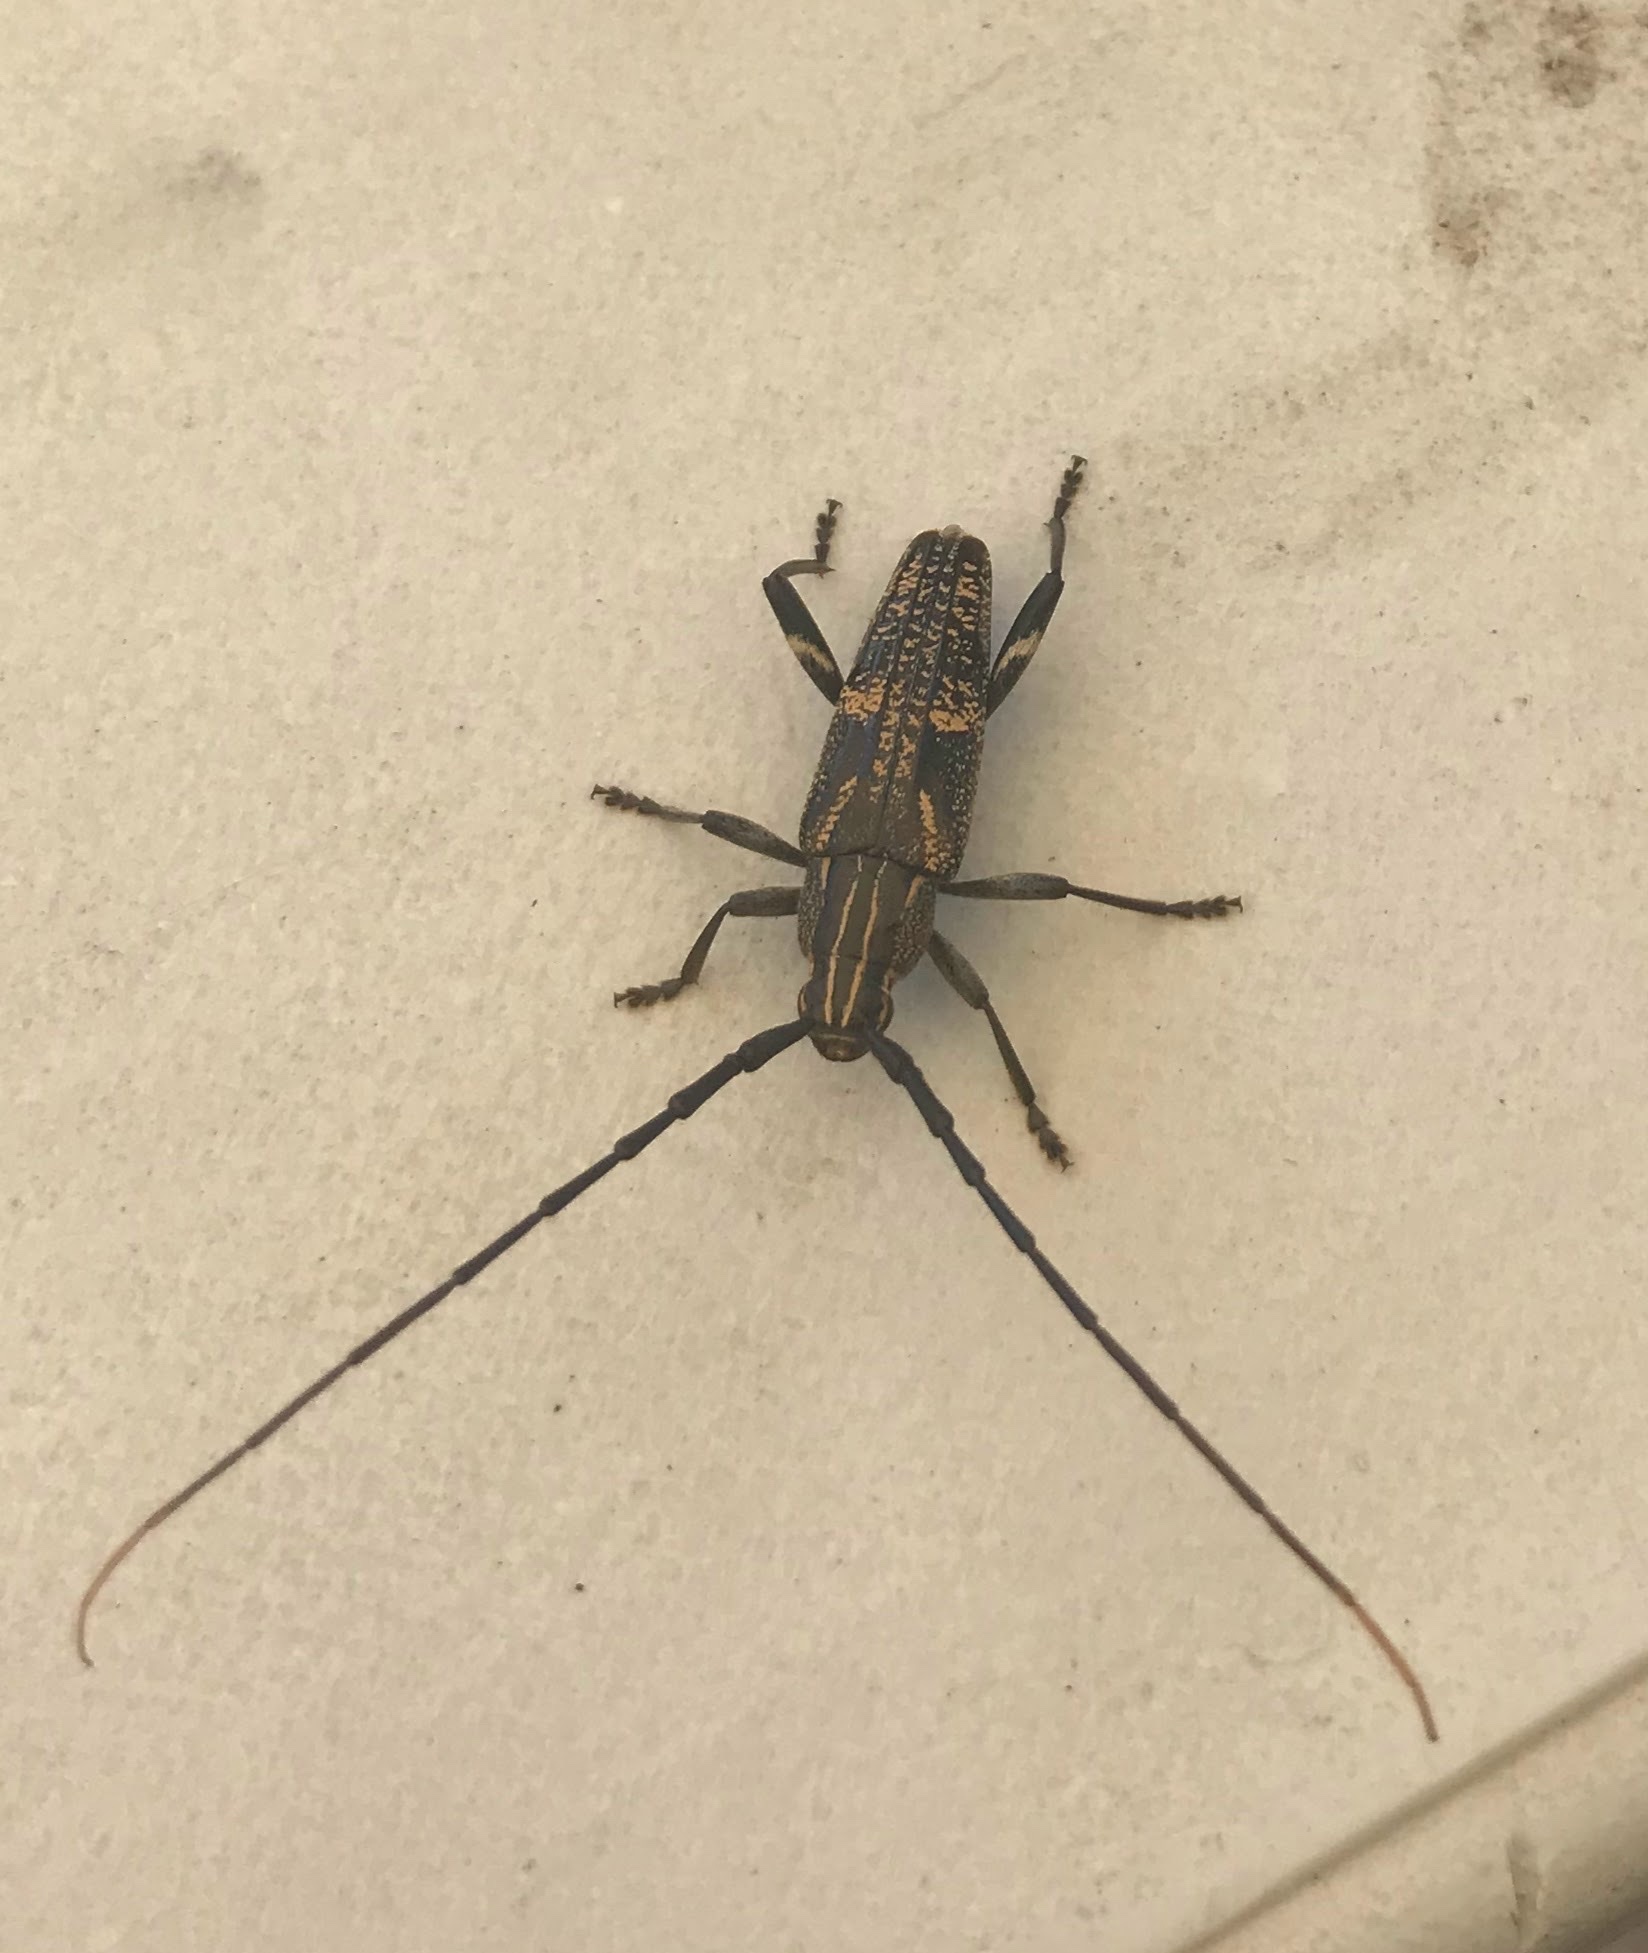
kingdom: Animalia
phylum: Arthropoda
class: Insecta
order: Coleoptera
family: Cerambycidae
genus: Coptomma
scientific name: Coptomma variegatum
